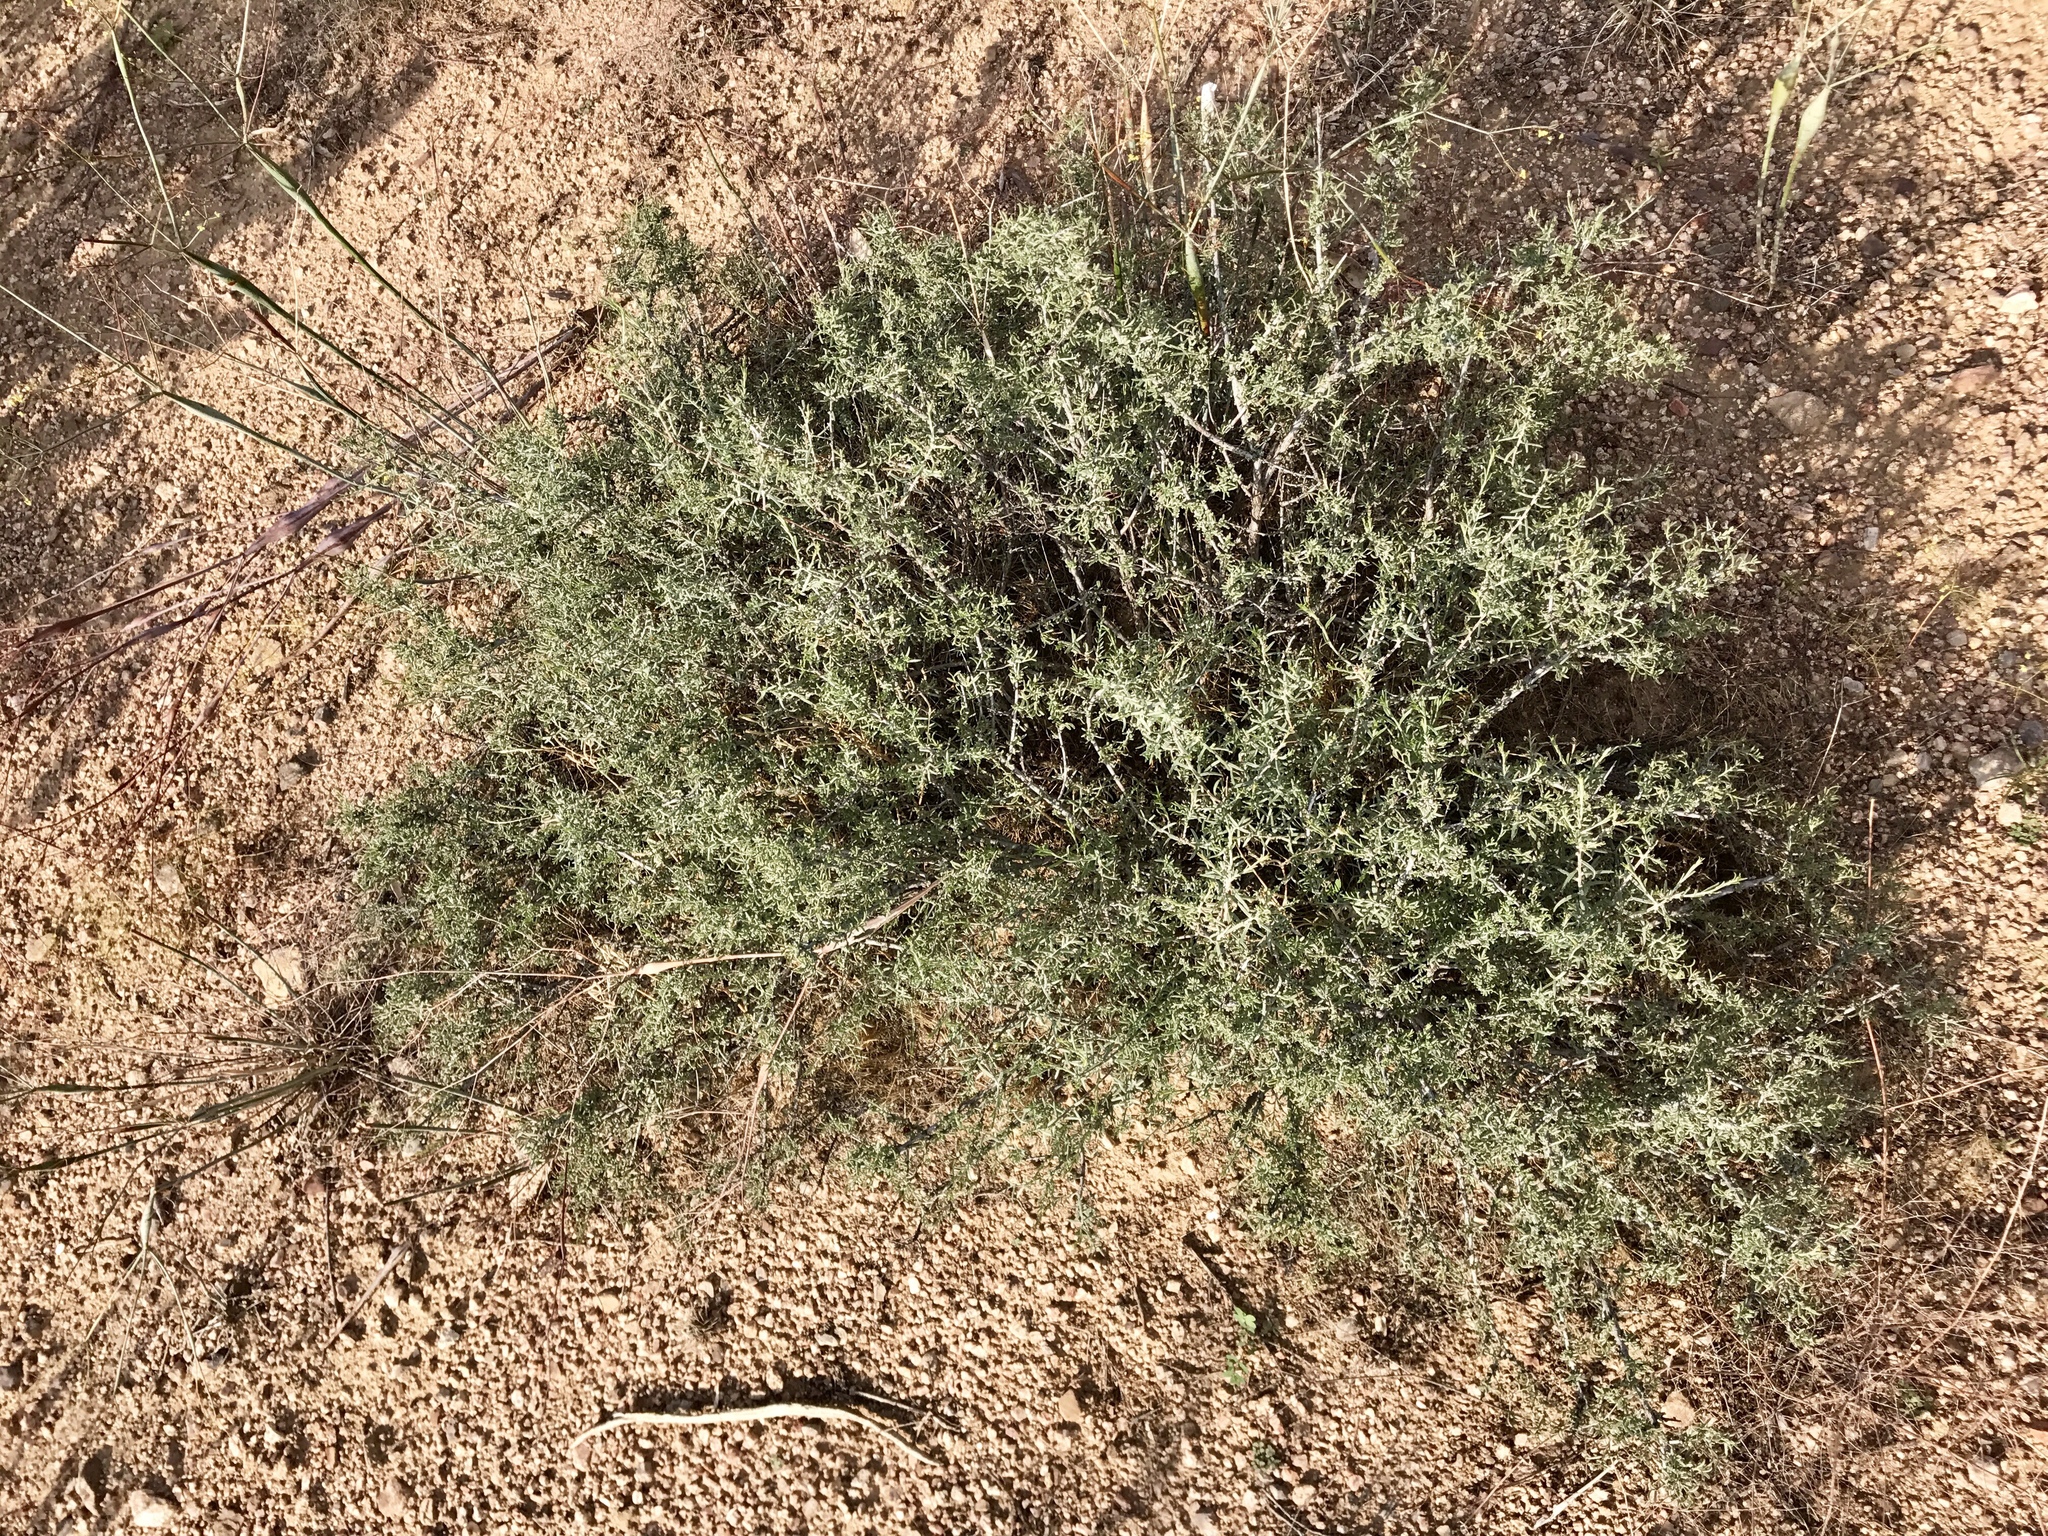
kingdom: Plantae
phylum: Tracheophyta
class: Magnoliopsida
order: Zygophyllales
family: Krameriaceae
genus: Krameria
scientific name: Krameria erecta
